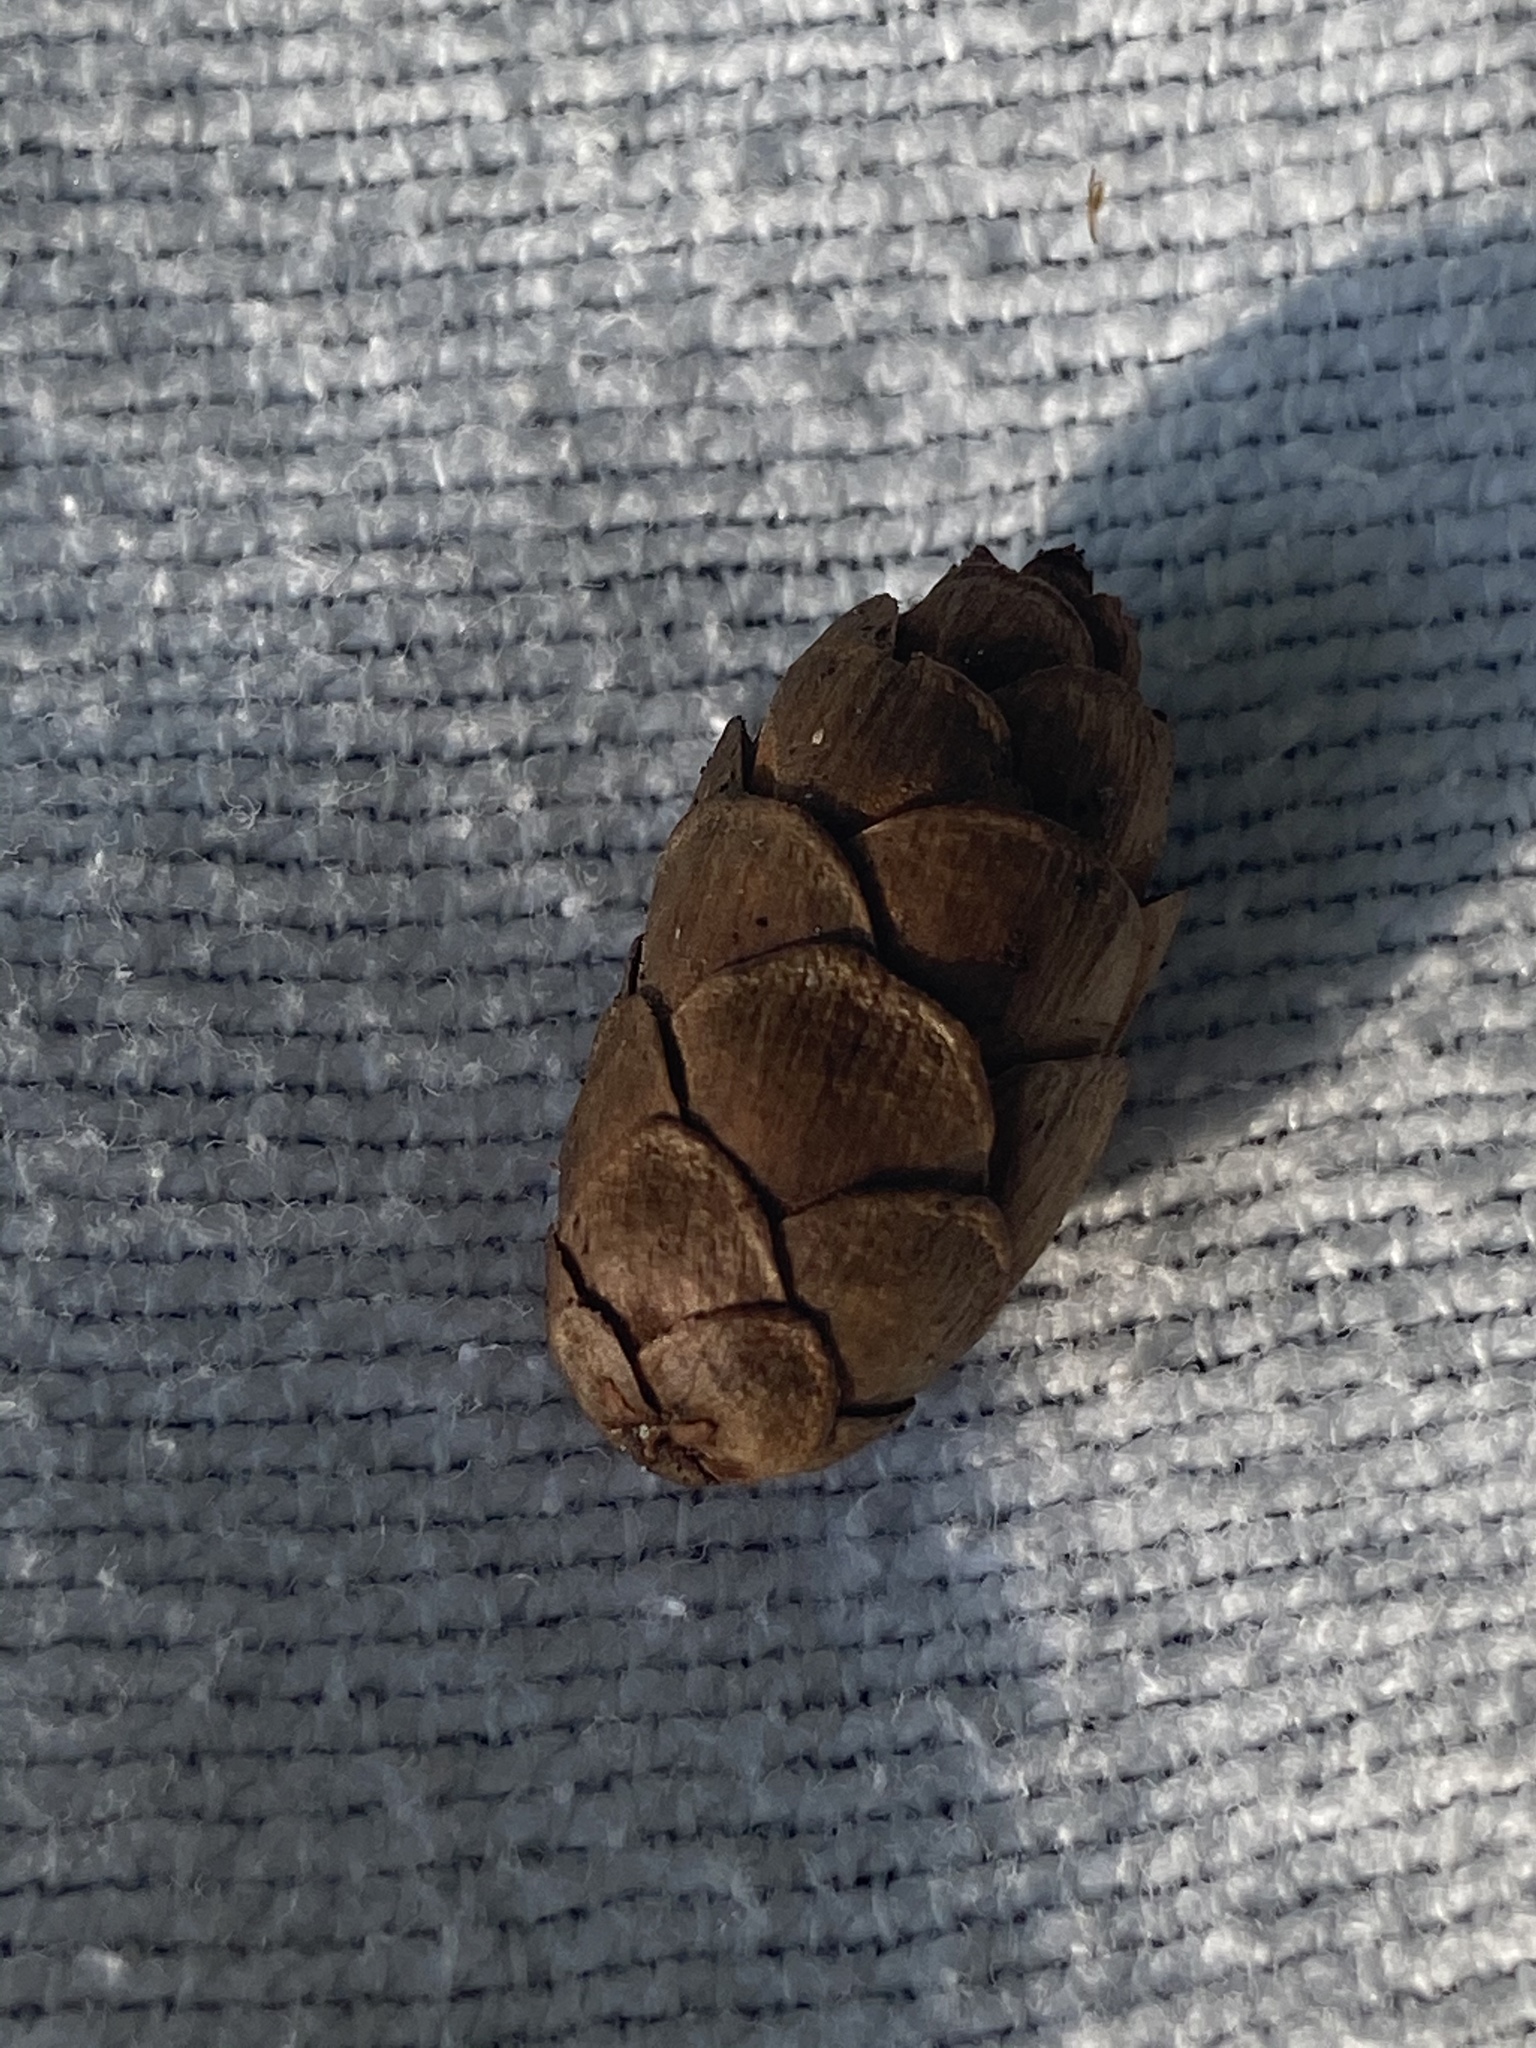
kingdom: Plantae
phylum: Tracheophyta
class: Pinopsida
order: Pinales
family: Pinaceae
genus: Tsuga
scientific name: Tsuga canadensis
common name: Eastern hemlock
